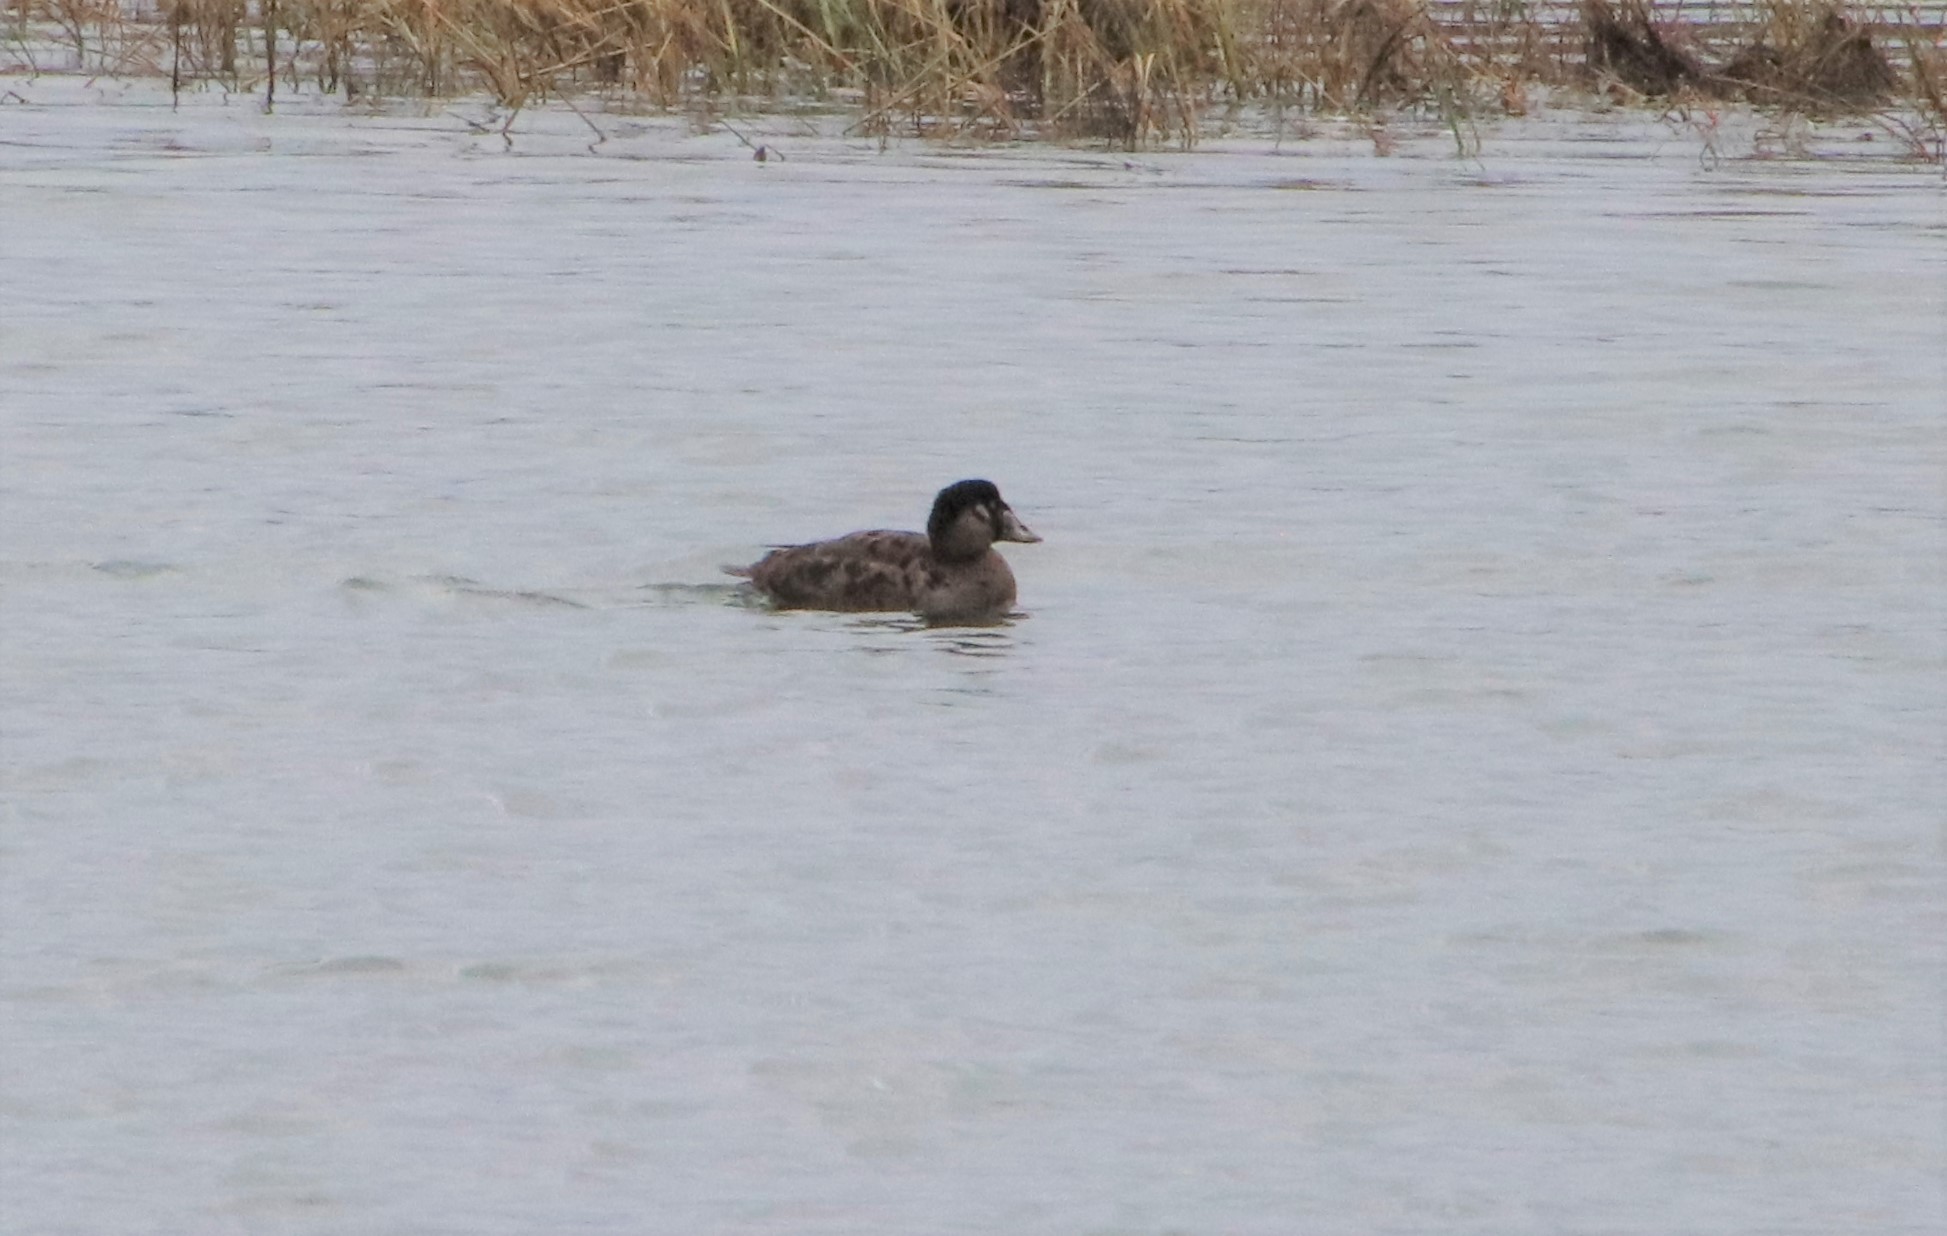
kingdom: Animalia
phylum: Chordata
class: Aves
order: Anseriformes
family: Anatidae
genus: Melanitta
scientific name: Melanitta perspicillata
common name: Surf scoter
